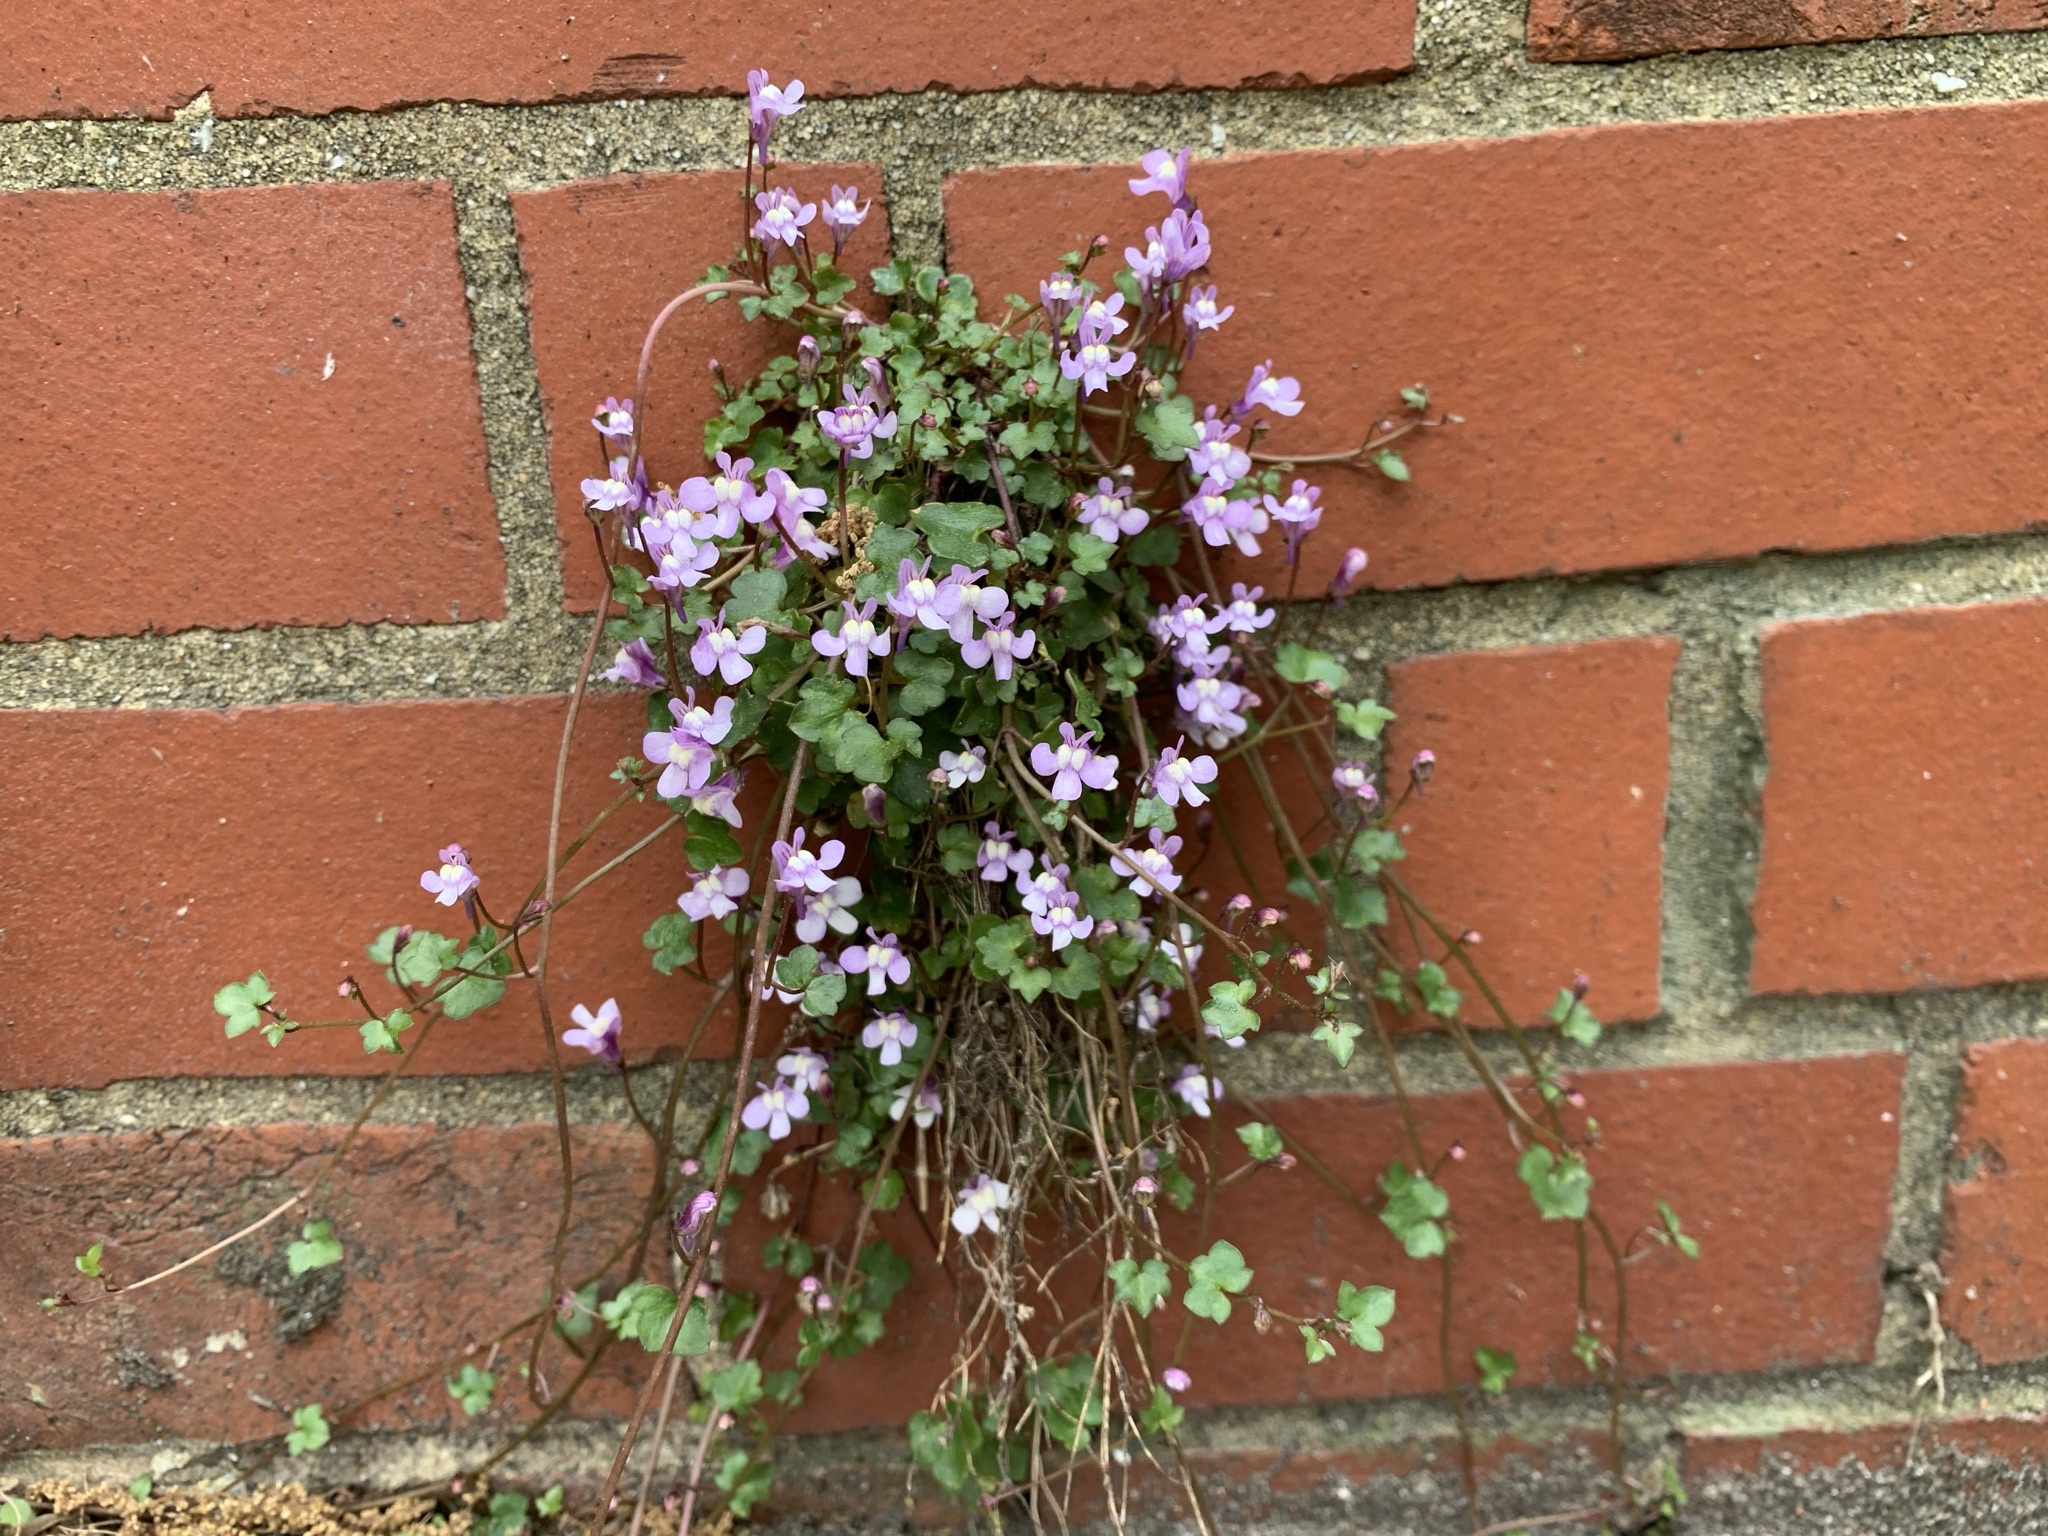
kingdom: Plantae
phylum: Tracheophyta
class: Magnoliopsida
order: Lamiales
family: Plantaginaceae
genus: Cymbalaria
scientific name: Cymbalaria muralis
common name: Ivy-leaved toadflax
